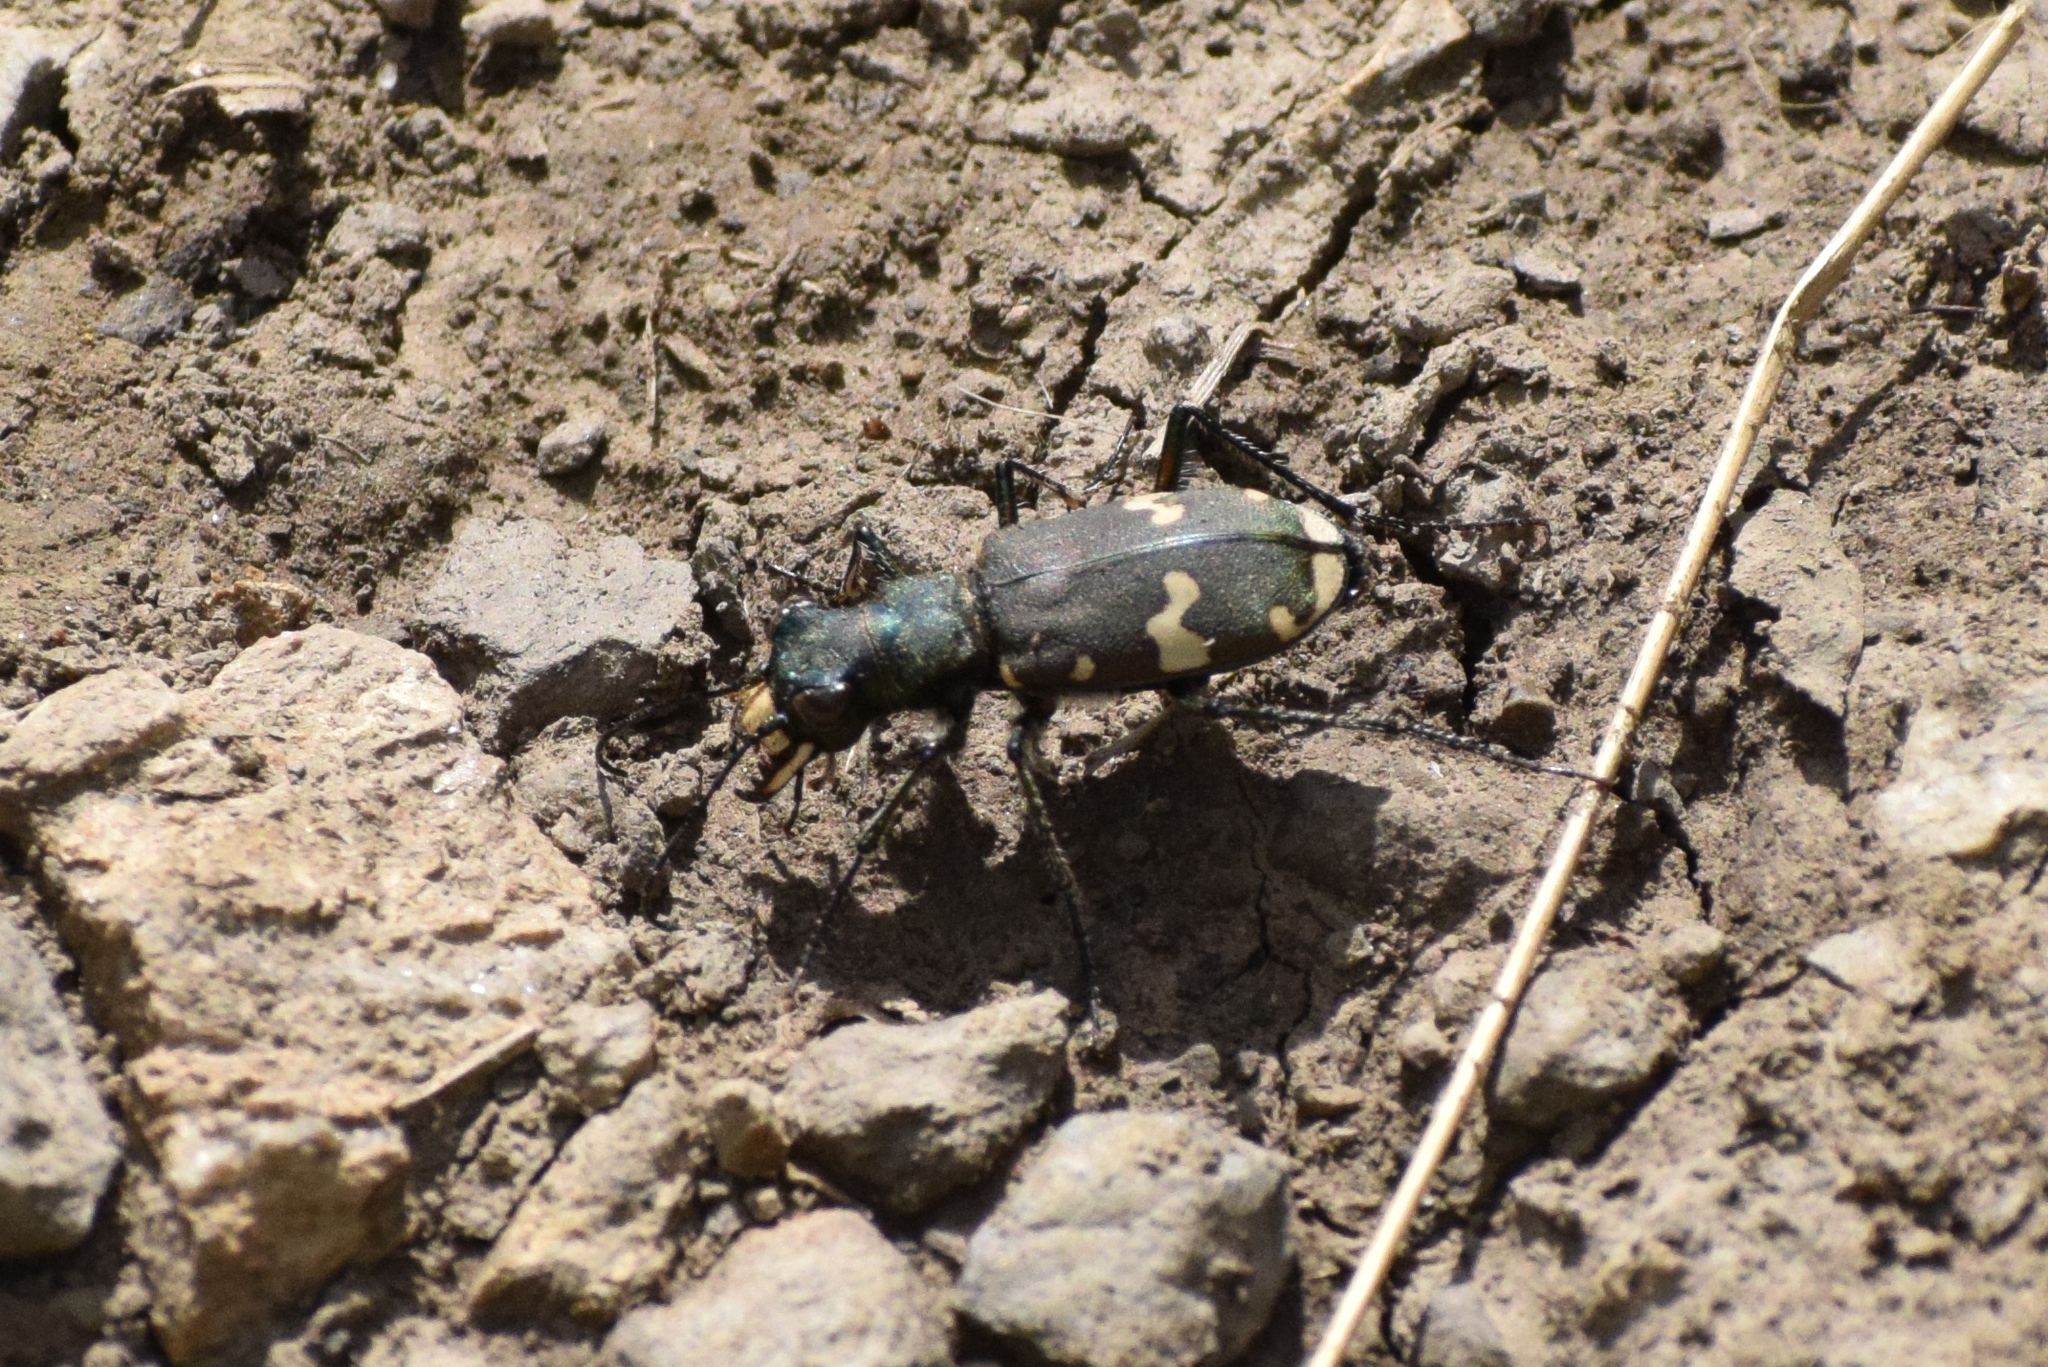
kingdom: Animalia
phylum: Arthropoda
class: Insecta
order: Coleoptera
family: Carabidae
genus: Cicindela
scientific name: Cicindela hybrida
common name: Northern dune tiger beetle
